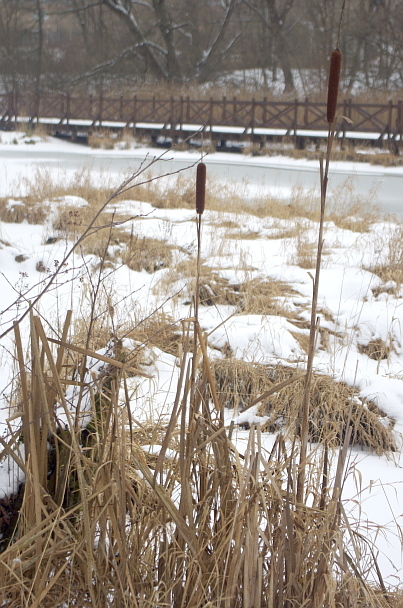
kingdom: Plantae
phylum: Tracheophyta
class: Liliopsida
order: Poales
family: Typhaceae
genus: Typha
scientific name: Typha latifolia
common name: Broadleaf cattail
